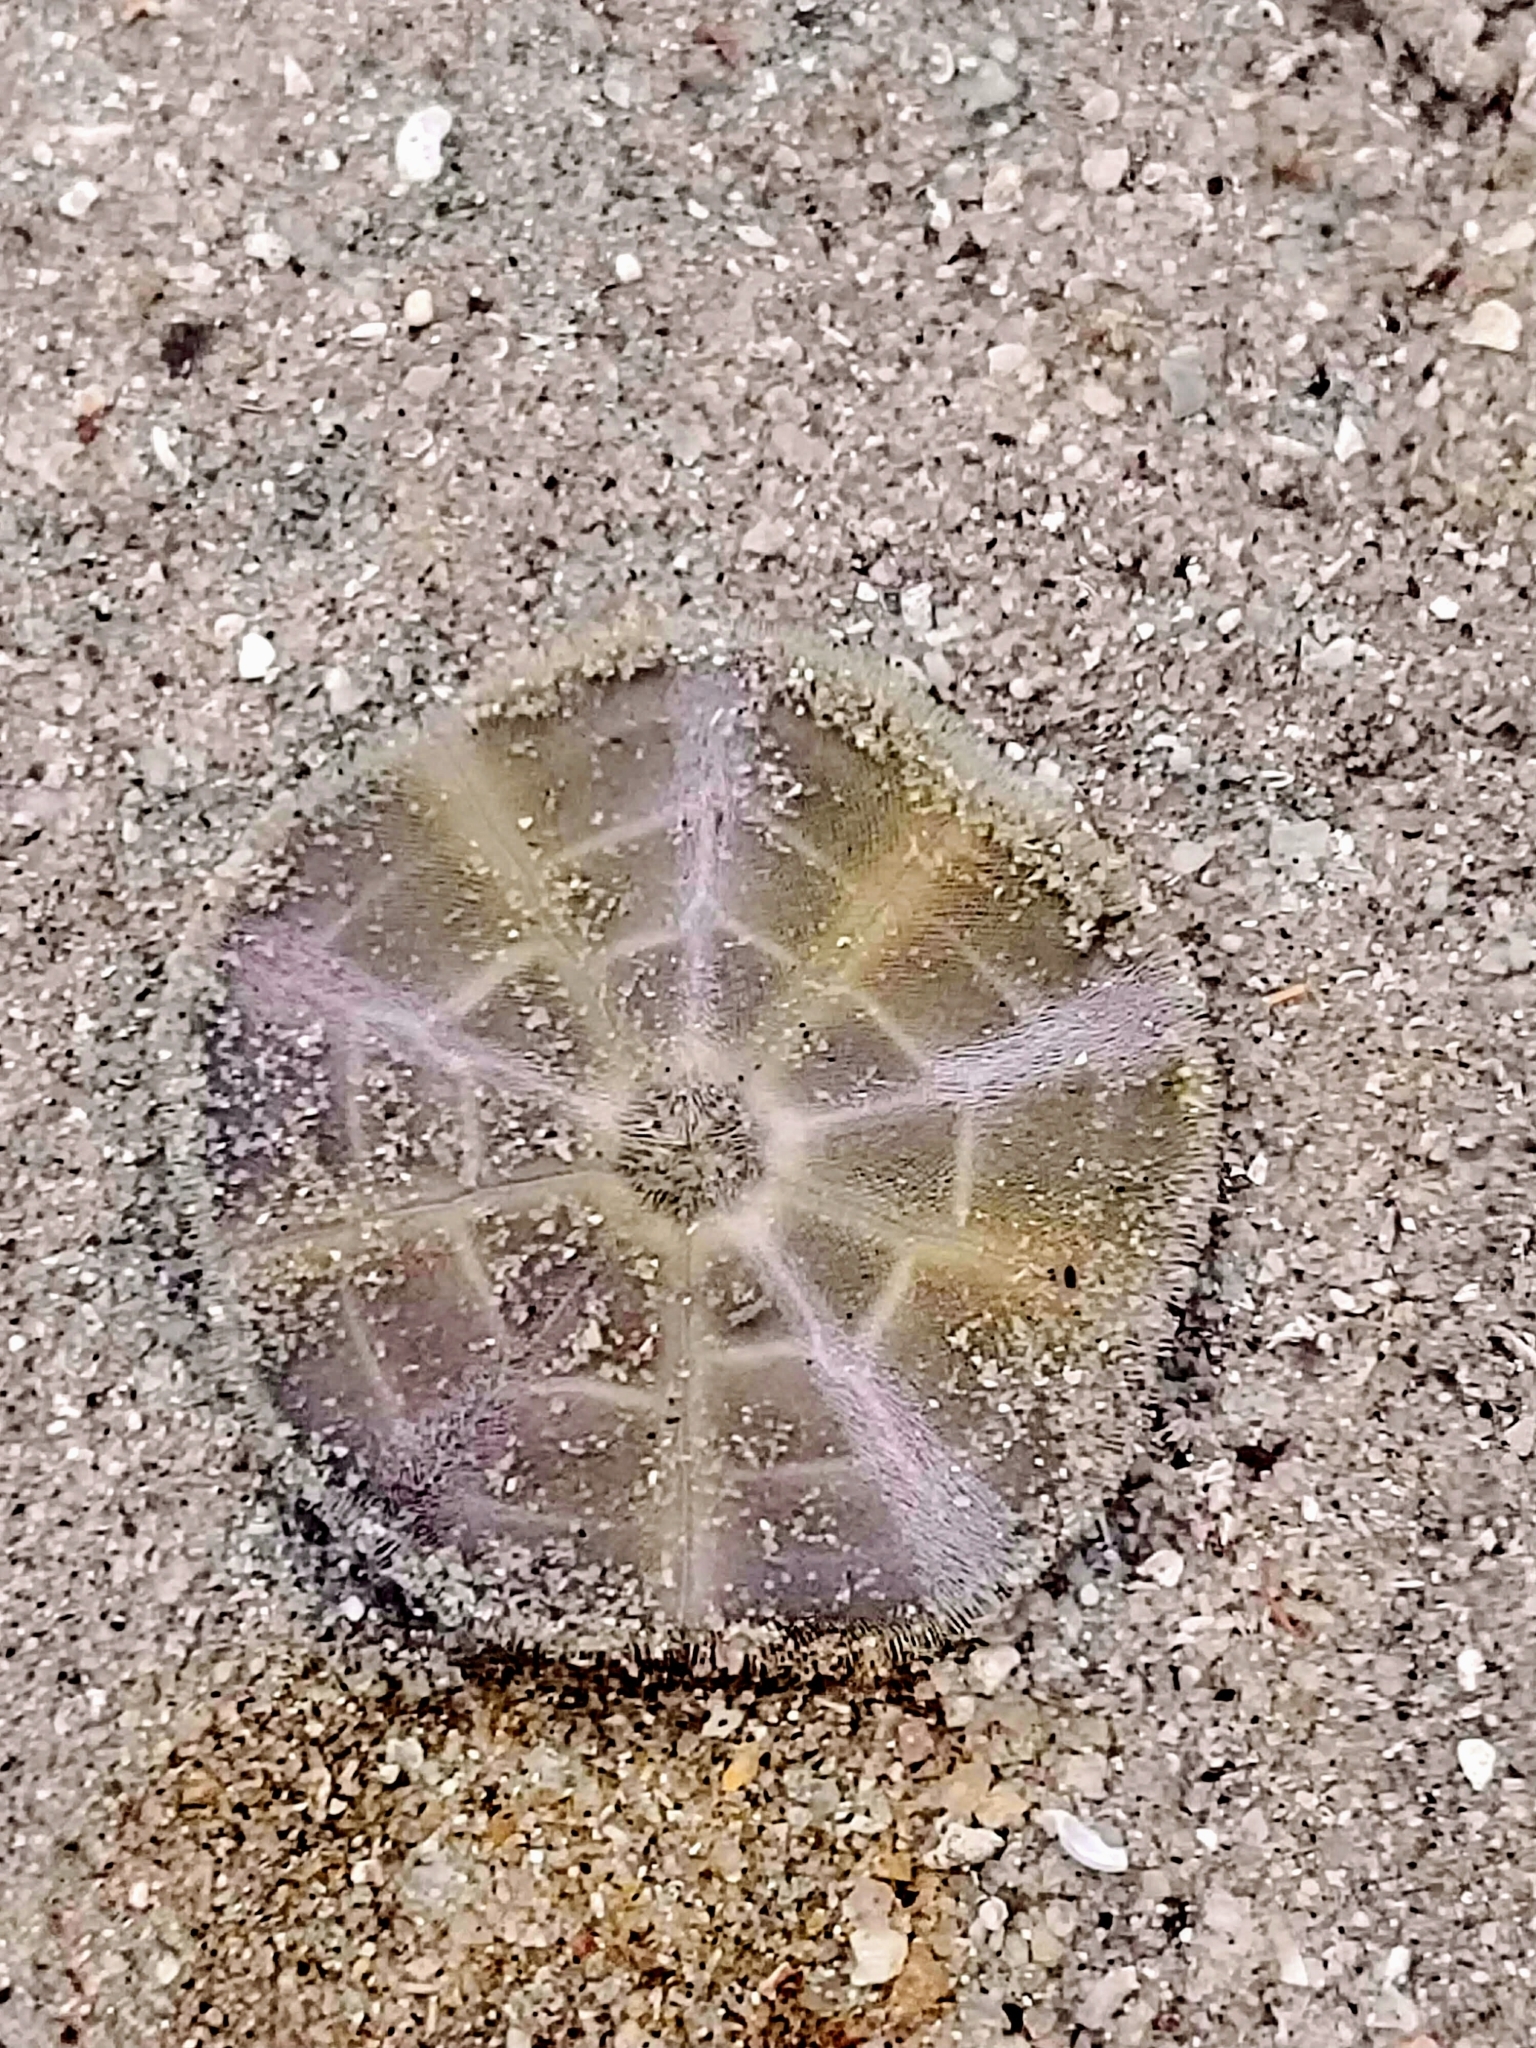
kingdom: Animalia
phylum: Echinodermata
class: Echinoidea
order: Clypeasteroida
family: Clypeasteridae
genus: Arachnoides
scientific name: Arachnoides placenta
